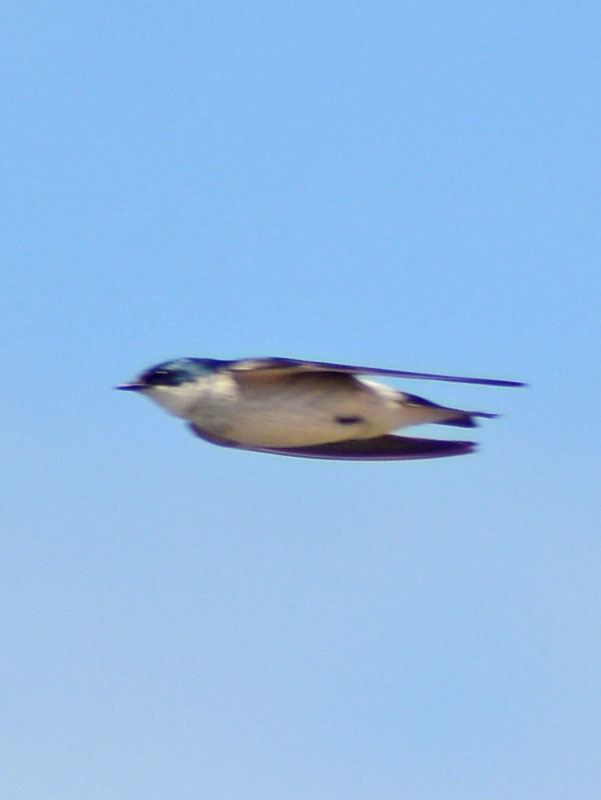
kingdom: Animalia
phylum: Chordata
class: Aves
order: Passeriformes
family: Hirundinidae
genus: Tachycineta
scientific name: Tachycineta albilinea
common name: Mangrove swallow
